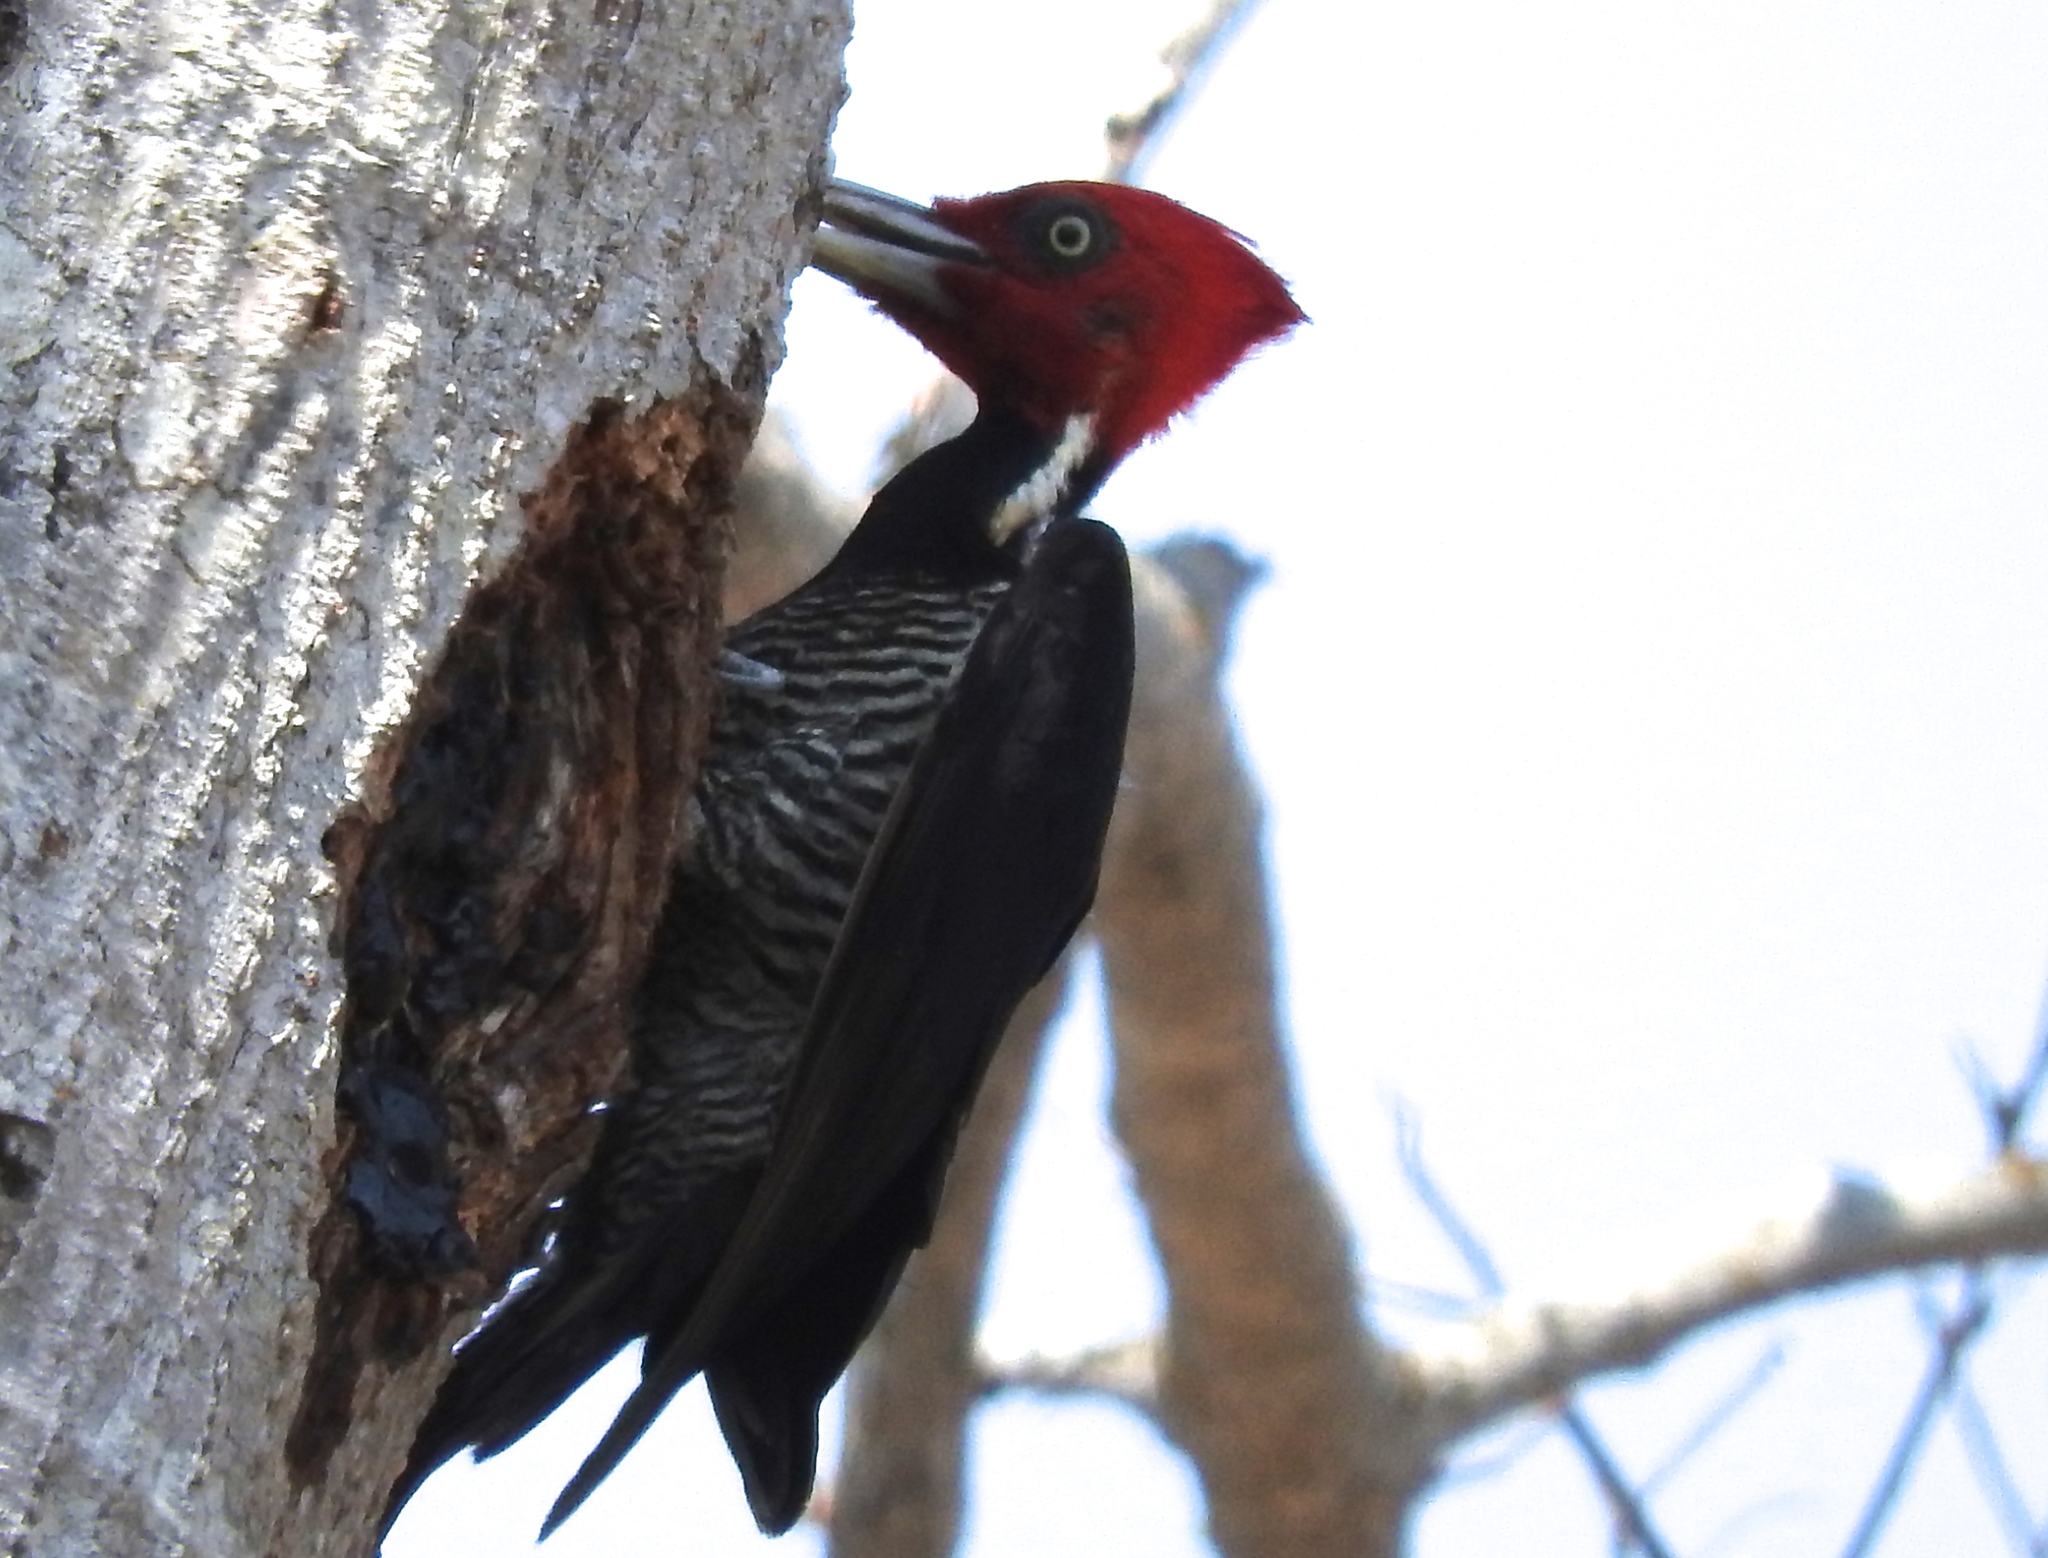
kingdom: Animalia
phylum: Chordata
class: Aves
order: Piciformes
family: Picidae
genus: Campephilus
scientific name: Campephilus guatemalensis
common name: Pale-billed woodpecker
